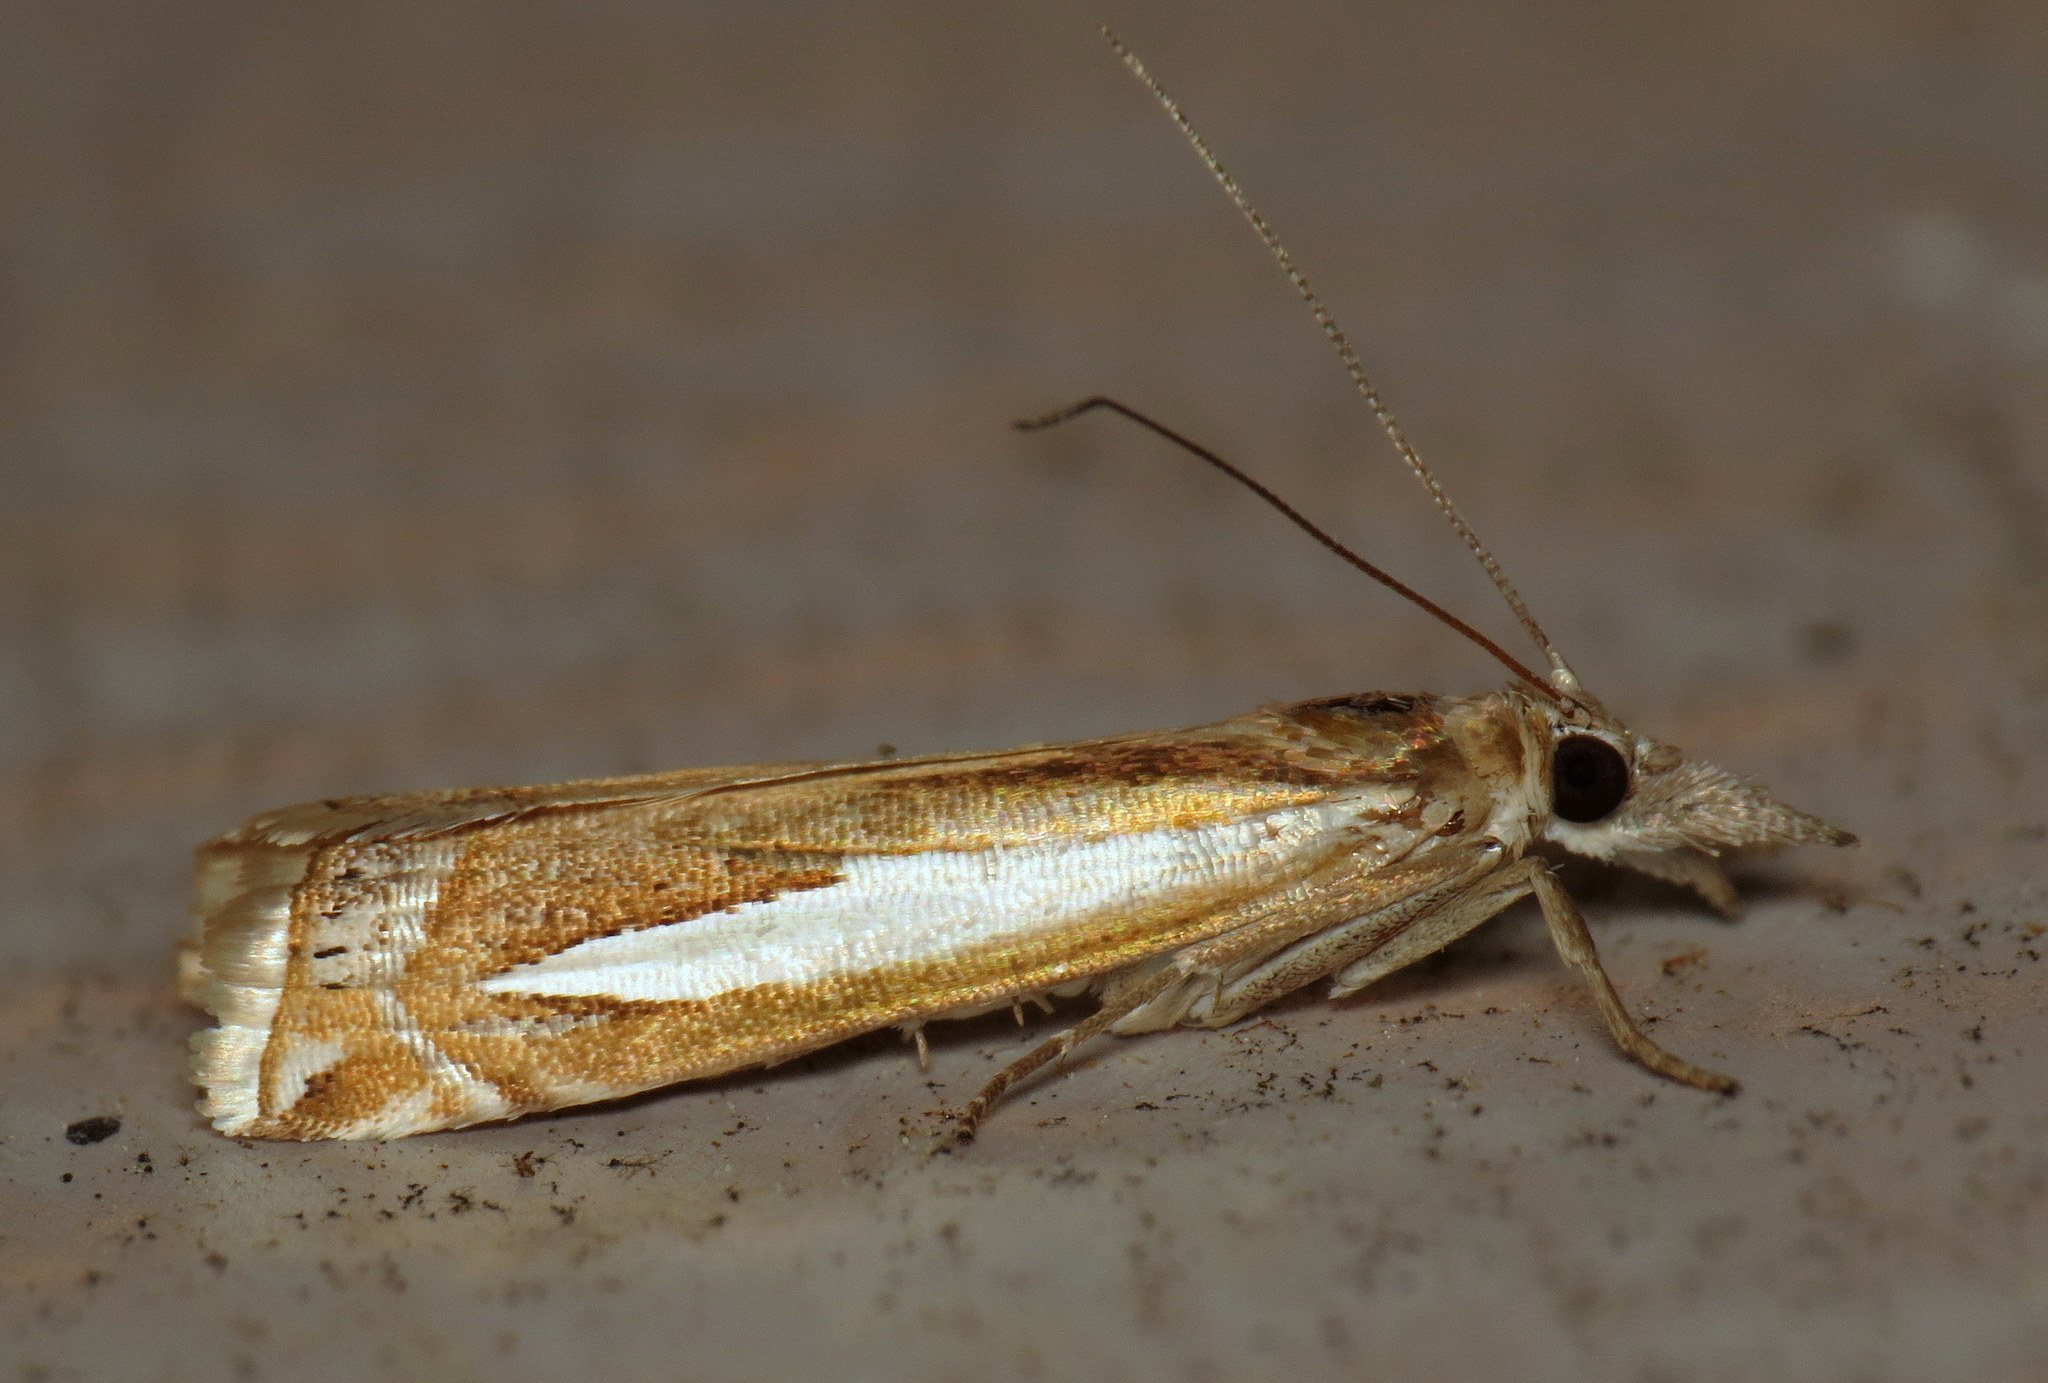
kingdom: Animalia
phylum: Arthropoda
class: Insecta
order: Lepidoptera
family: Crambidae
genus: Crambus
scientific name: Crambus praefectellus
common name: Common grass-veneer
